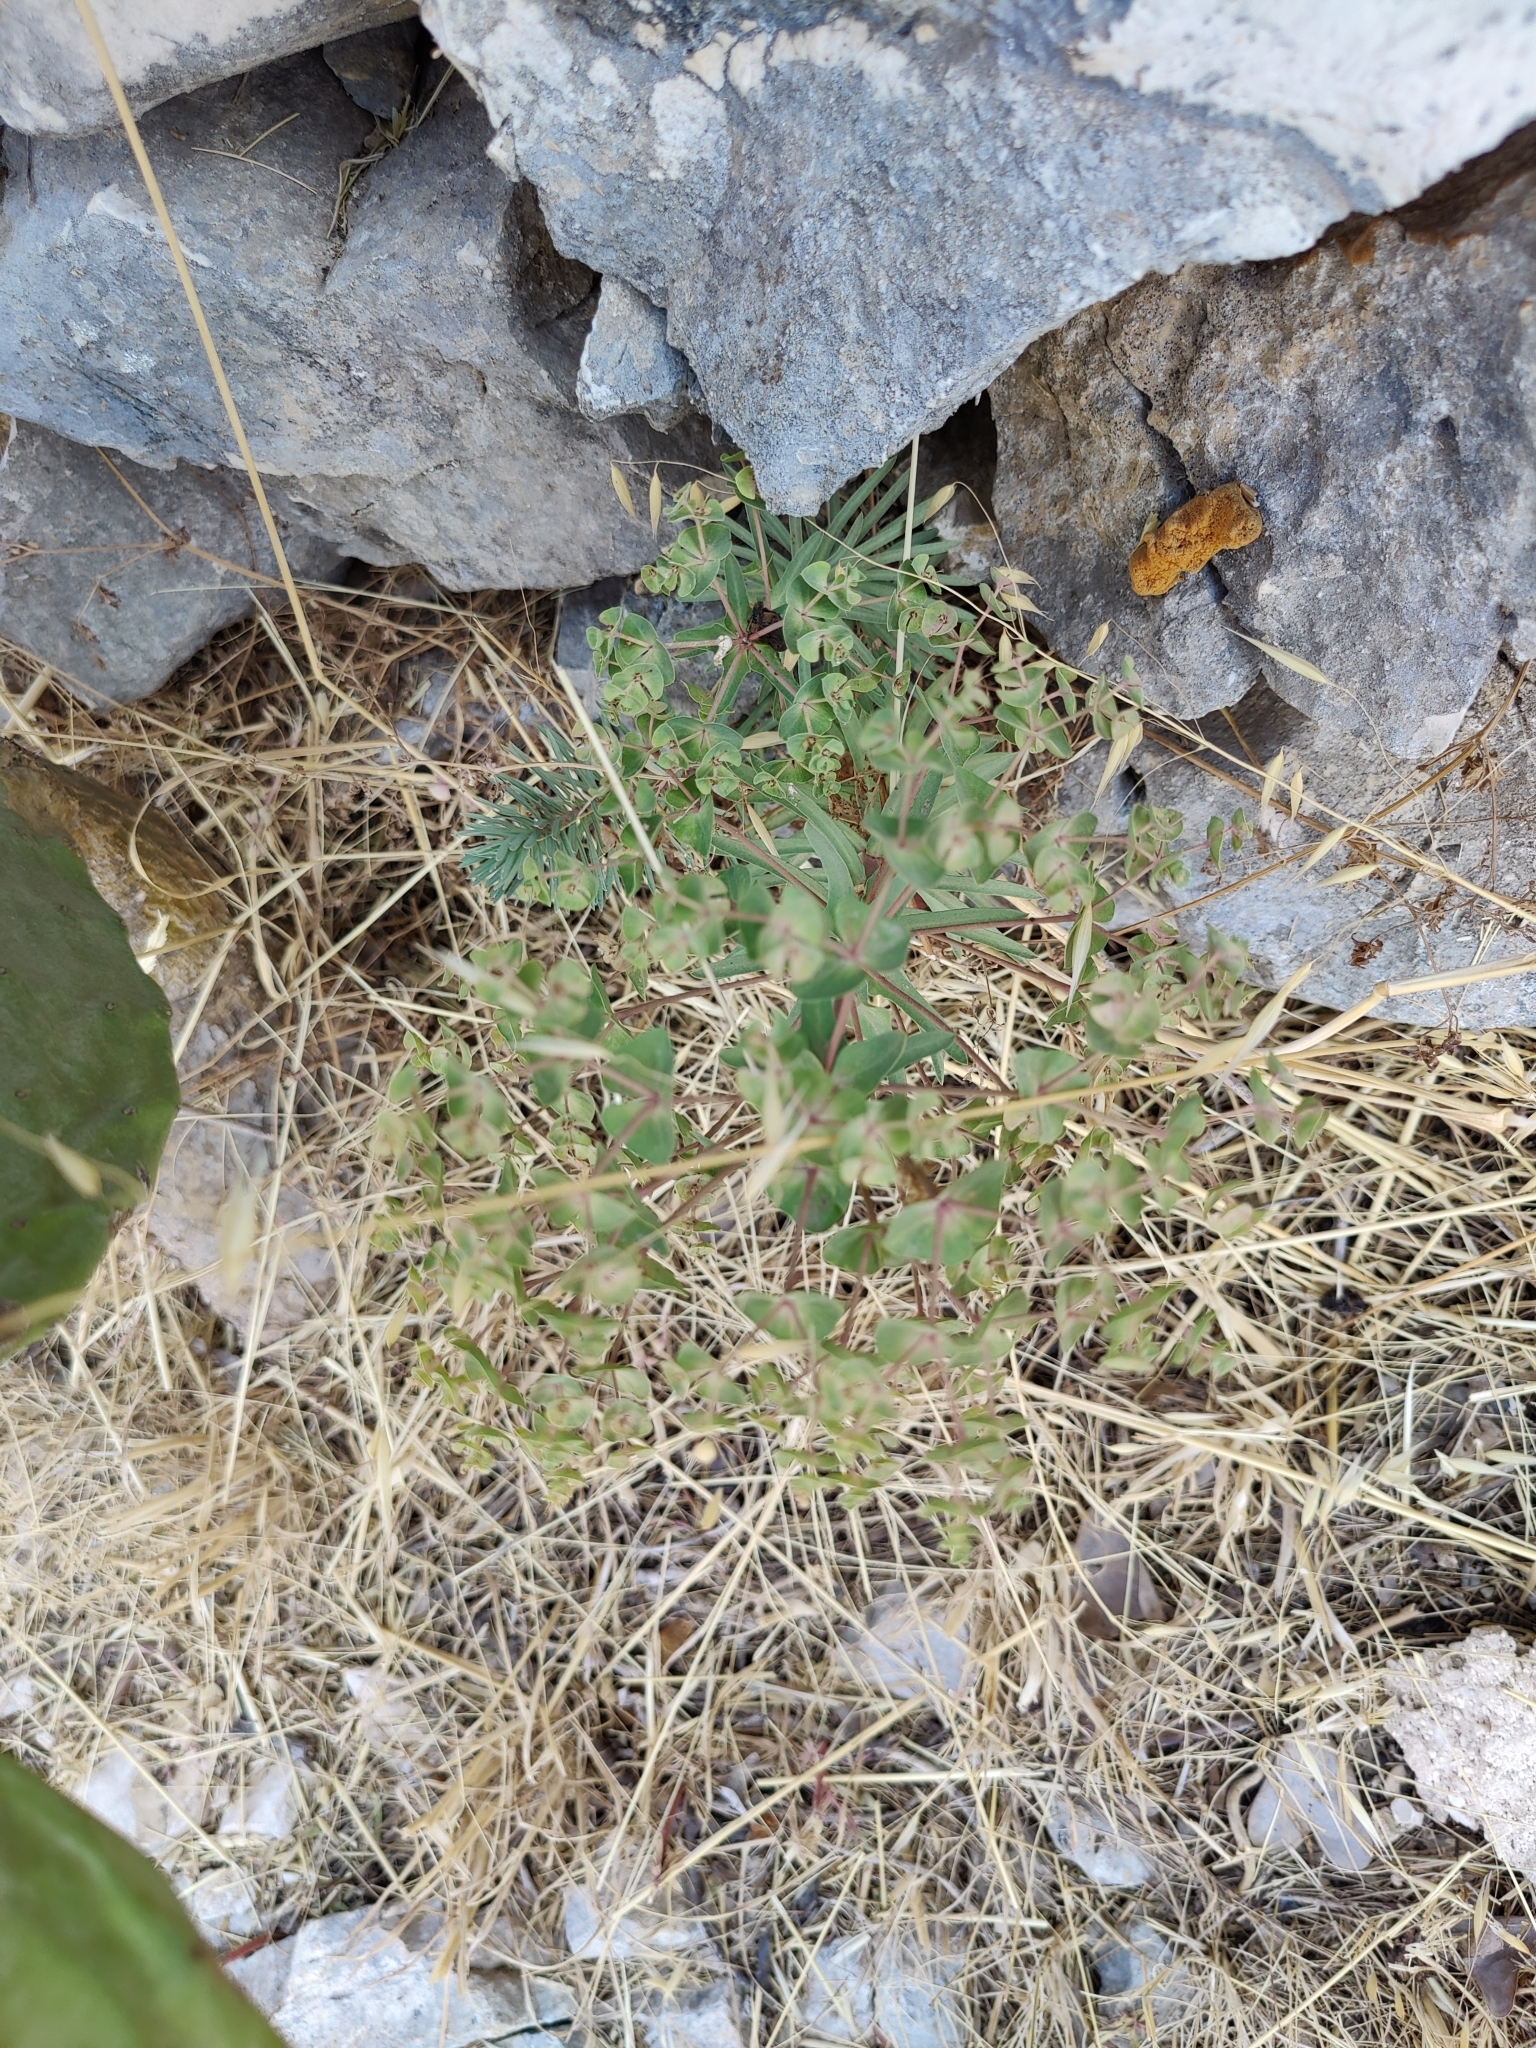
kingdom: Plantae
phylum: Tracheophyta
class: Magnoliopsida
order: Malpighiales
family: Euphorbiaceae
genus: Euphorbia
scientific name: Euphorbia segetalis
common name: Corn spurge
